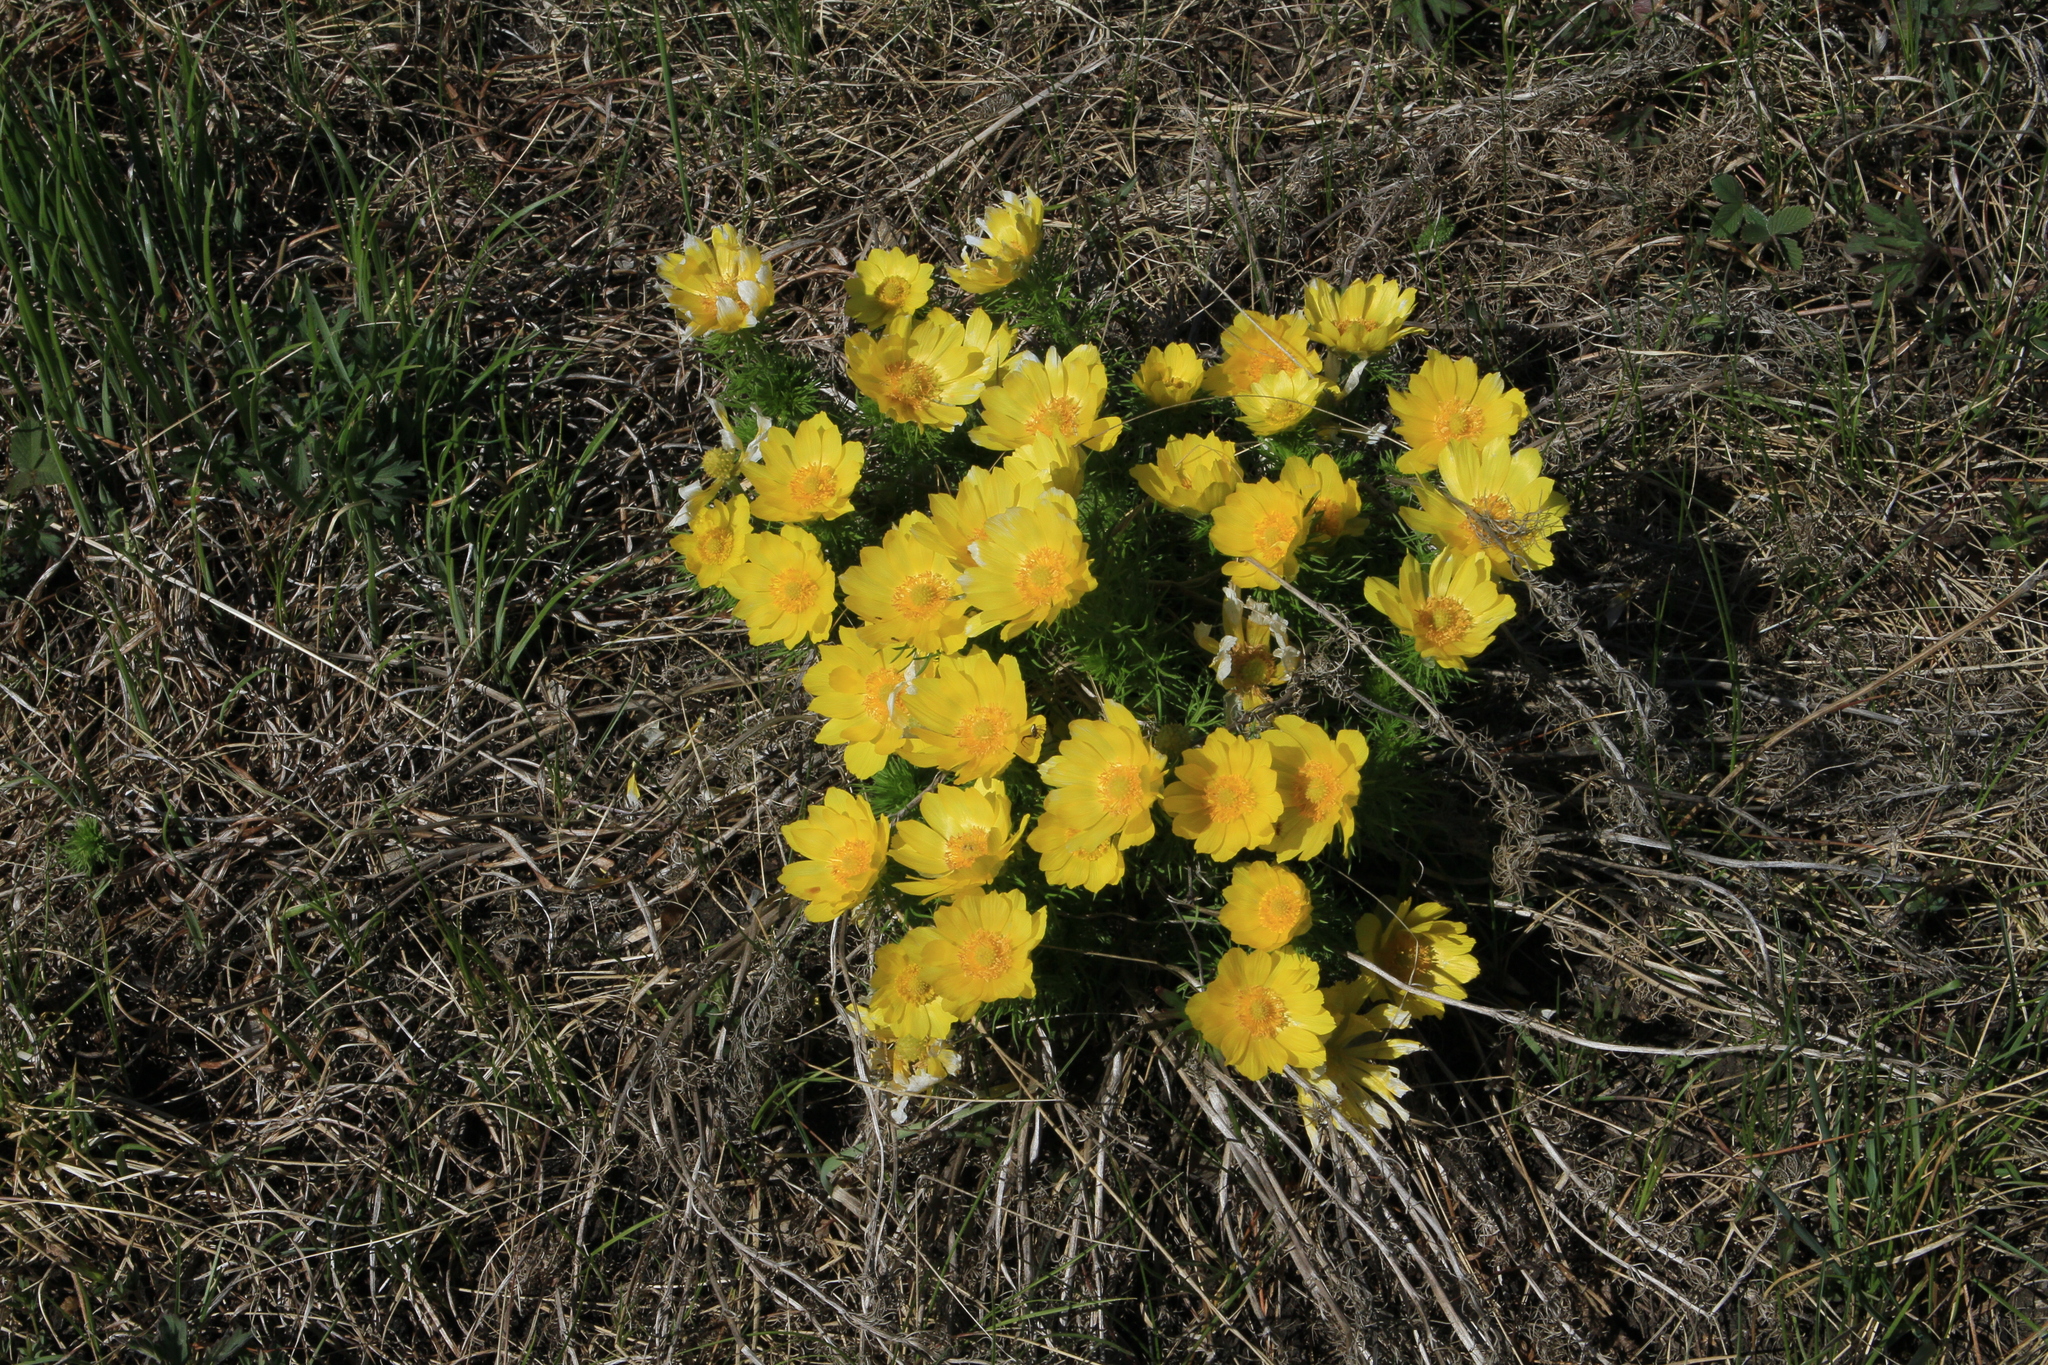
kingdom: Plantae
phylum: Tracheophyta
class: Magnoliopsida
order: Ranunculales
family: Ranunculaceae
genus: Adonis
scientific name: Adonis vernalis
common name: Yellow pheasants-eye
